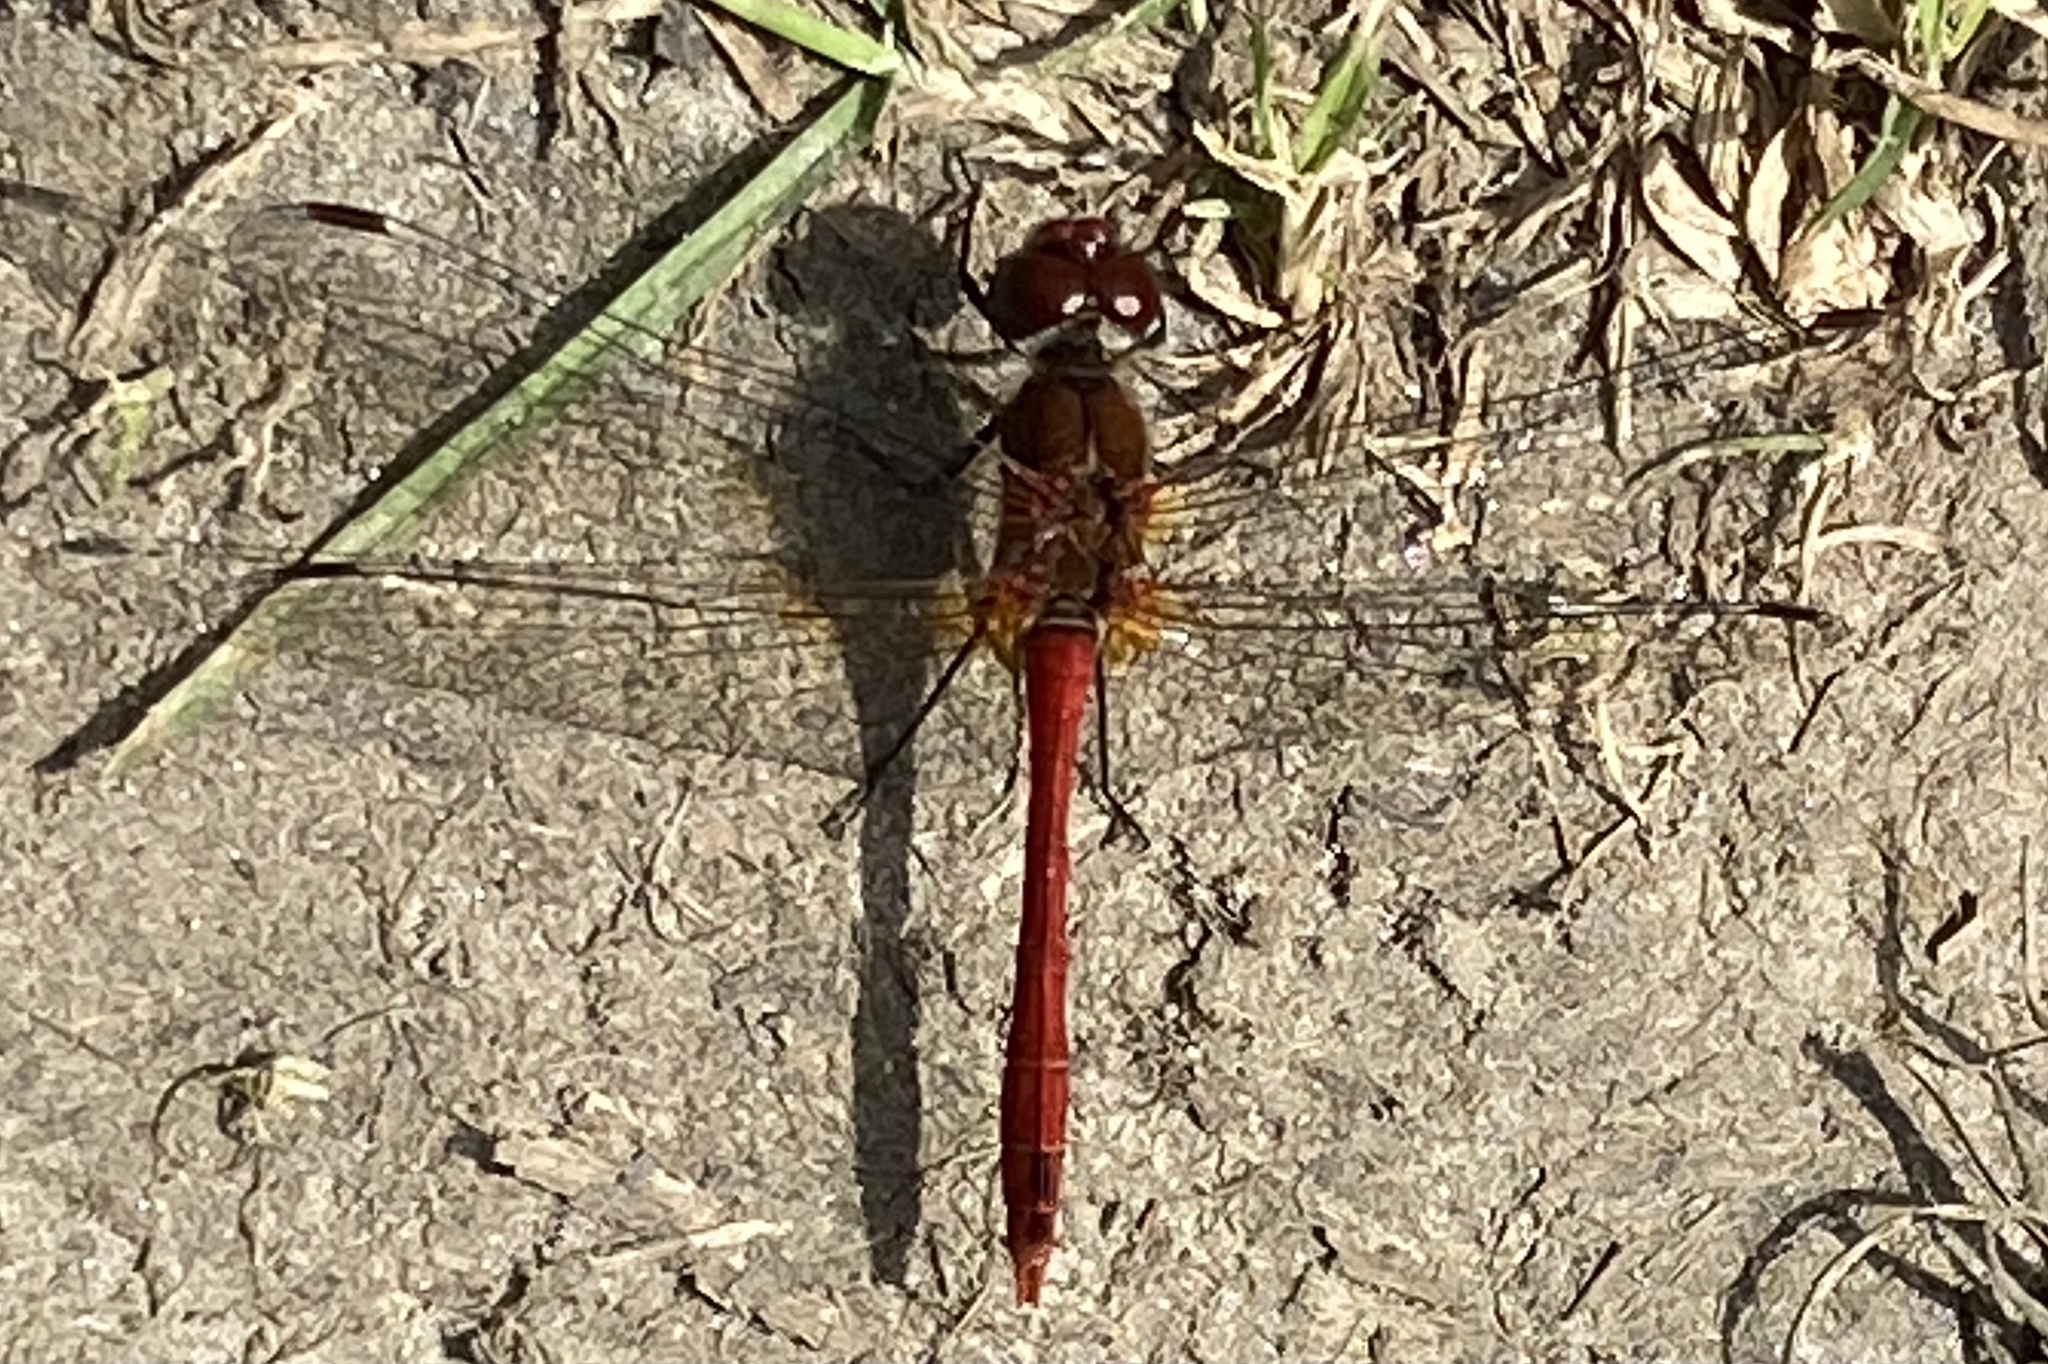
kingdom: Animalia
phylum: Arthropoda
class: Insecta
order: Odonata
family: Libellulidae
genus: Sympetrum
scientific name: Sympetrum sanguineum
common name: Ruddy darter
